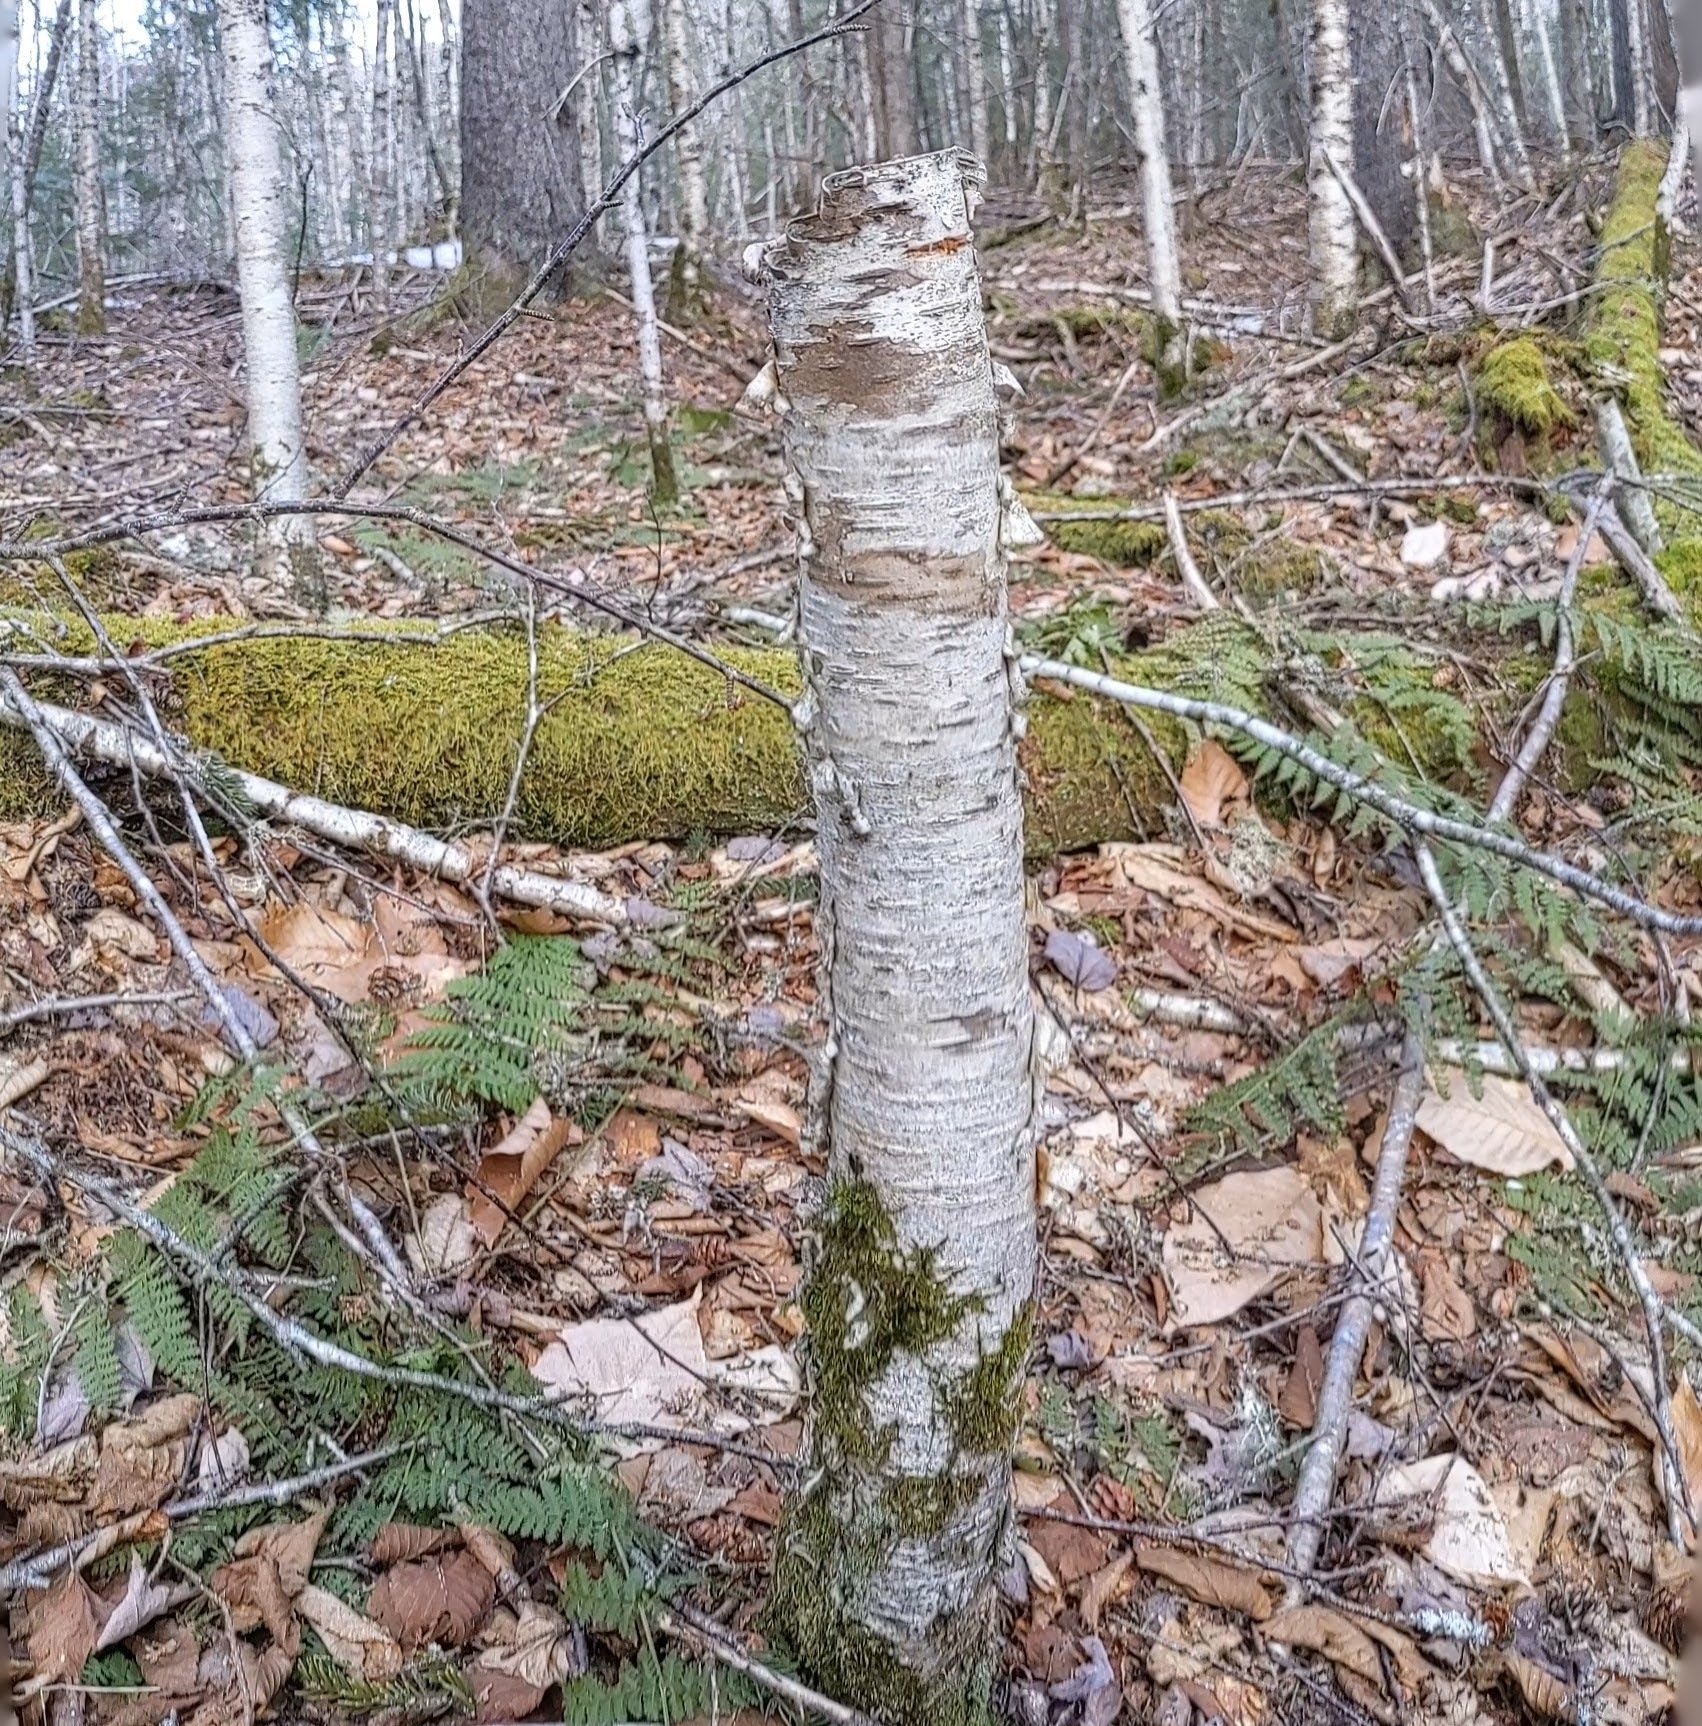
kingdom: Plantae
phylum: Tracheophyta
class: Magnoliopsida
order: Fagales
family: Betulaceae
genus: Betula
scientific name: Betula alleghaniensis
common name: Yellow birch
